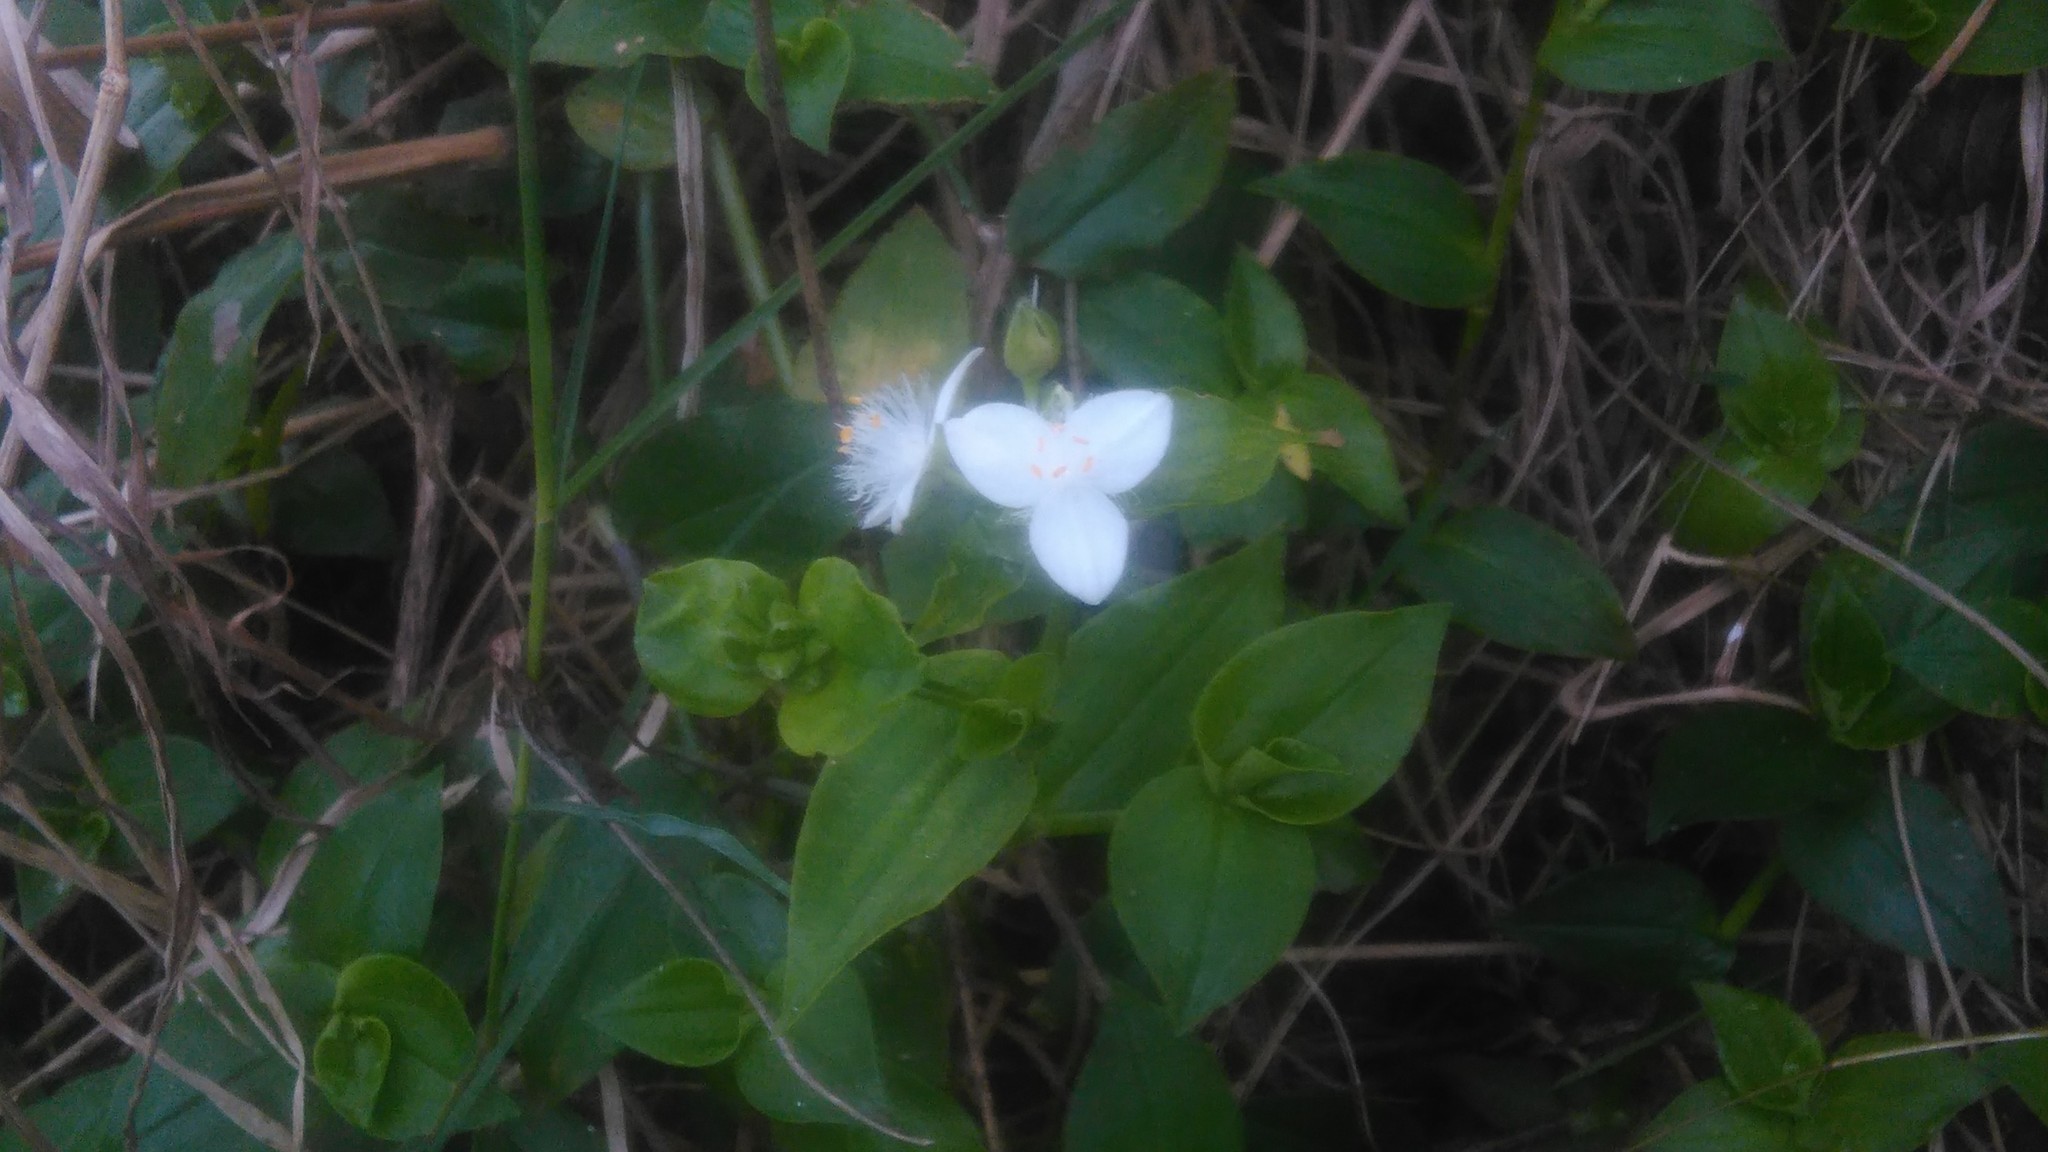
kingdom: Plantae
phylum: Tracheophyta
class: Liliopsida
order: Commelinales
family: Commelinaceae
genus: Tradescantia
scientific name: Tradescantia fluminensis
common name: Wandering-jew
